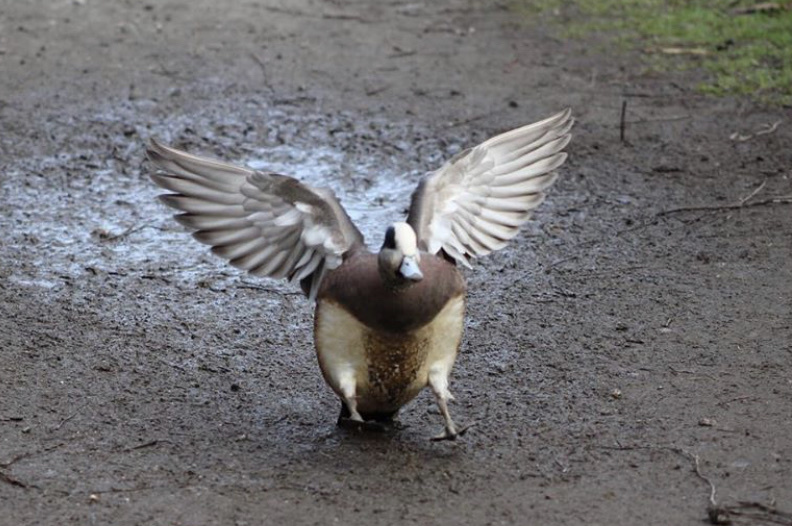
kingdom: Animalia
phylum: Chordata
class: Aves
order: Anseriformes
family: Anatidae
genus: Mareca
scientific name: Mareca americana
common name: American wigeon
